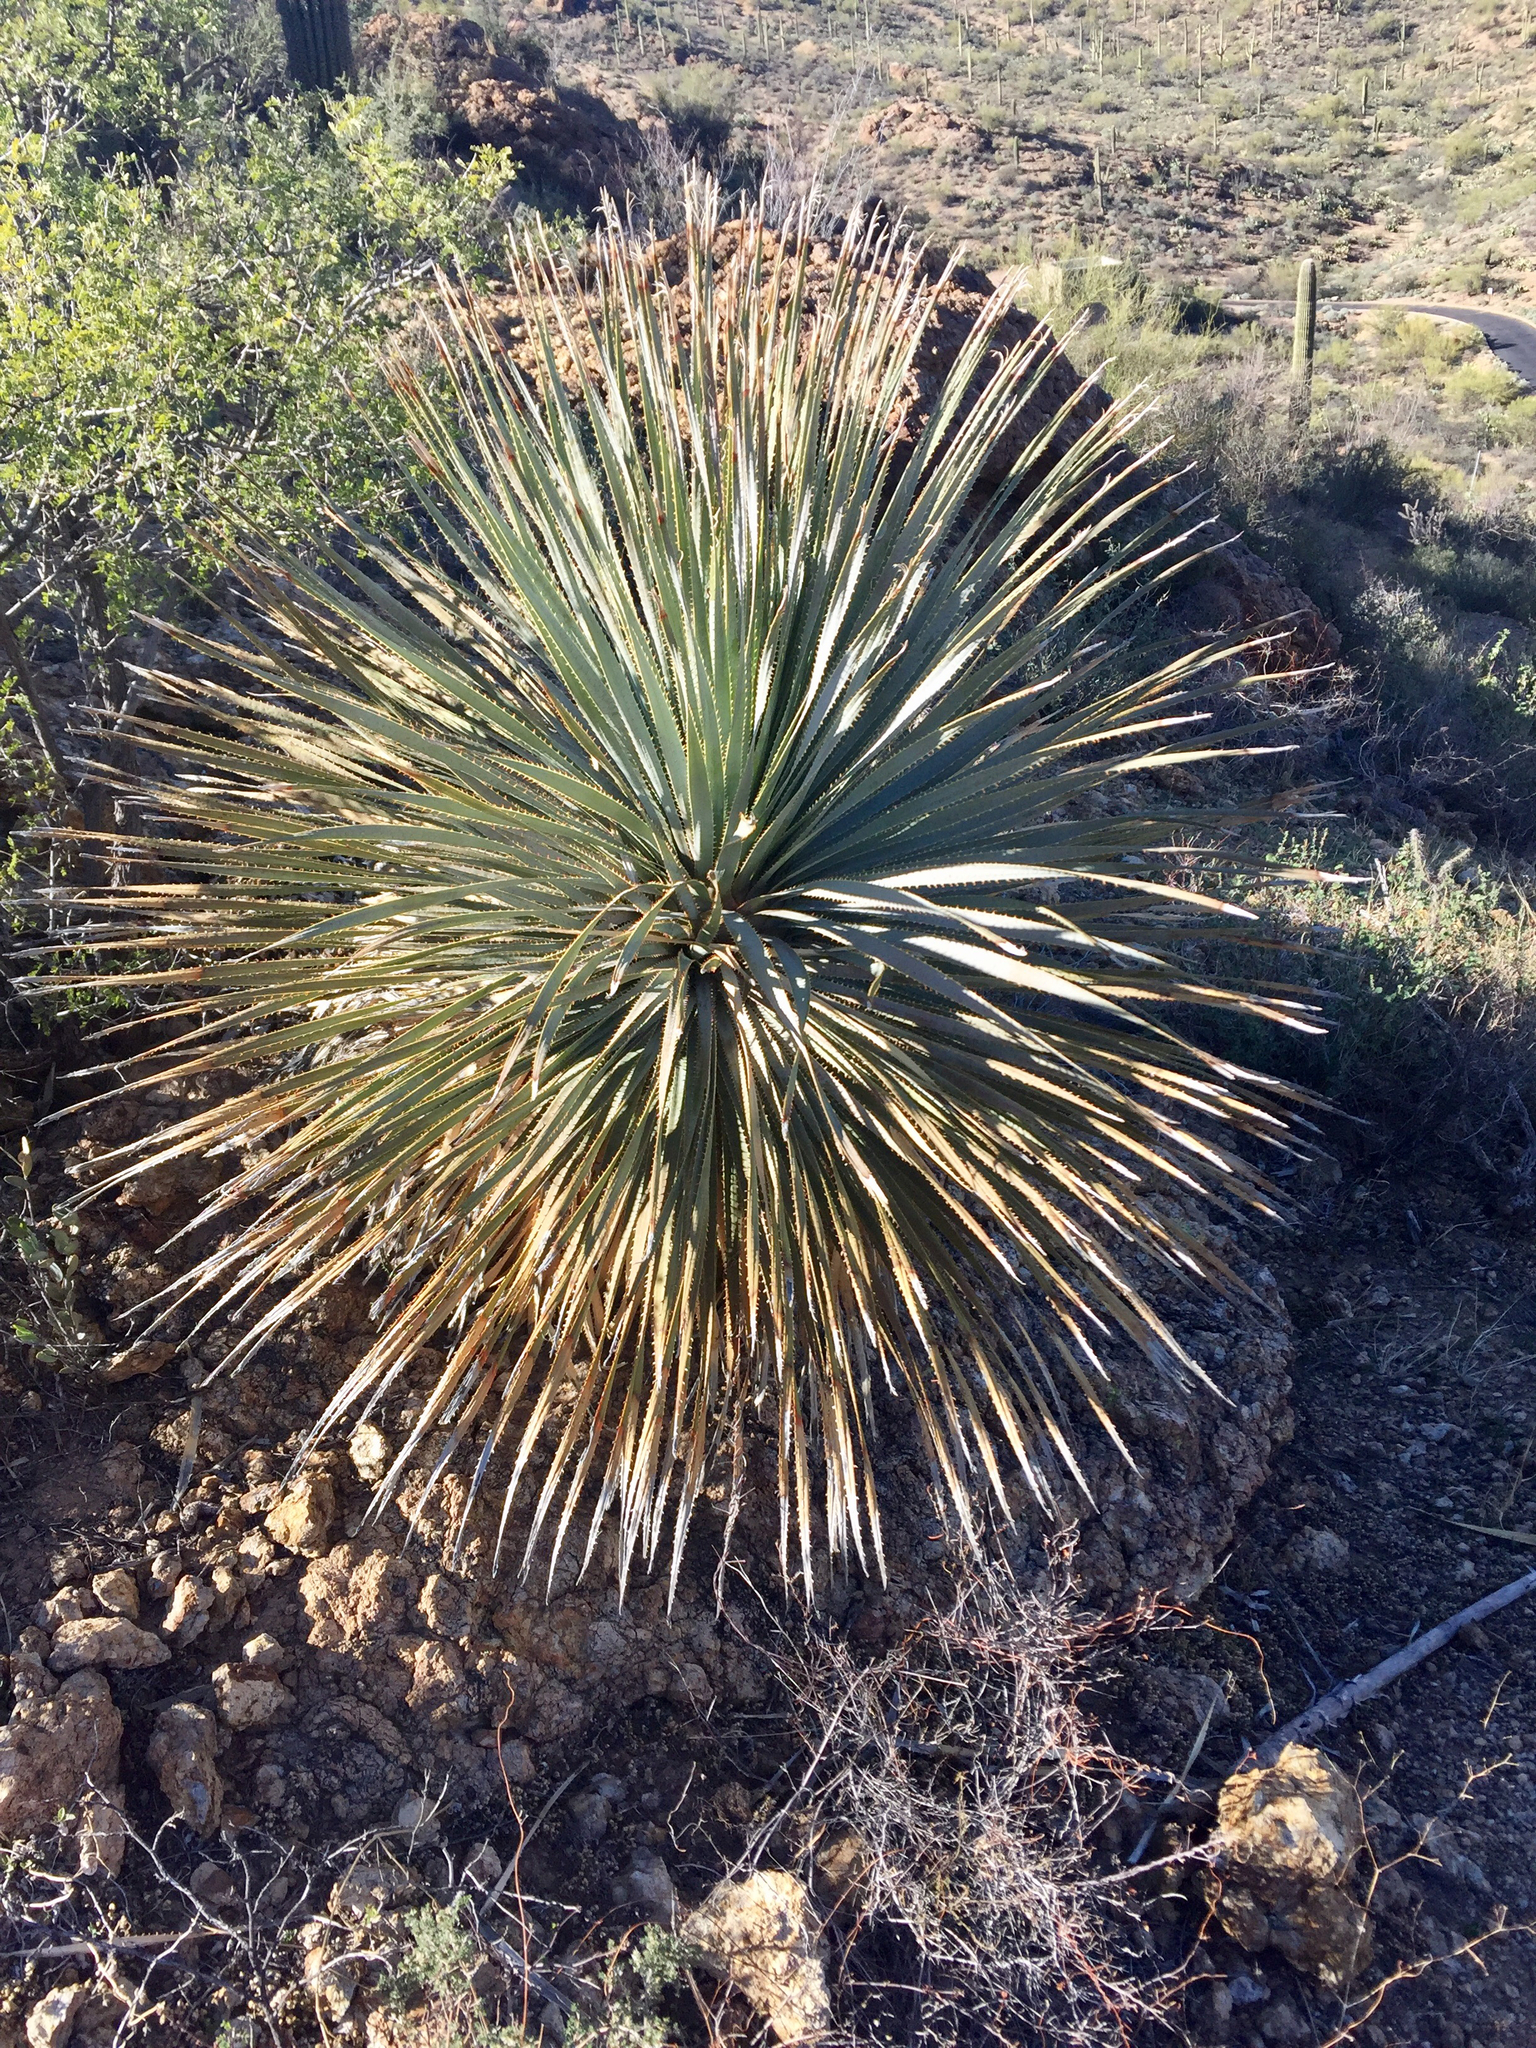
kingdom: Plantae
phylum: Tracheophyta
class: Liliopsida
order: Asparagales
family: Asparagaceae
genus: Dasylirion
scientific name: Dasylirion wheeleri
